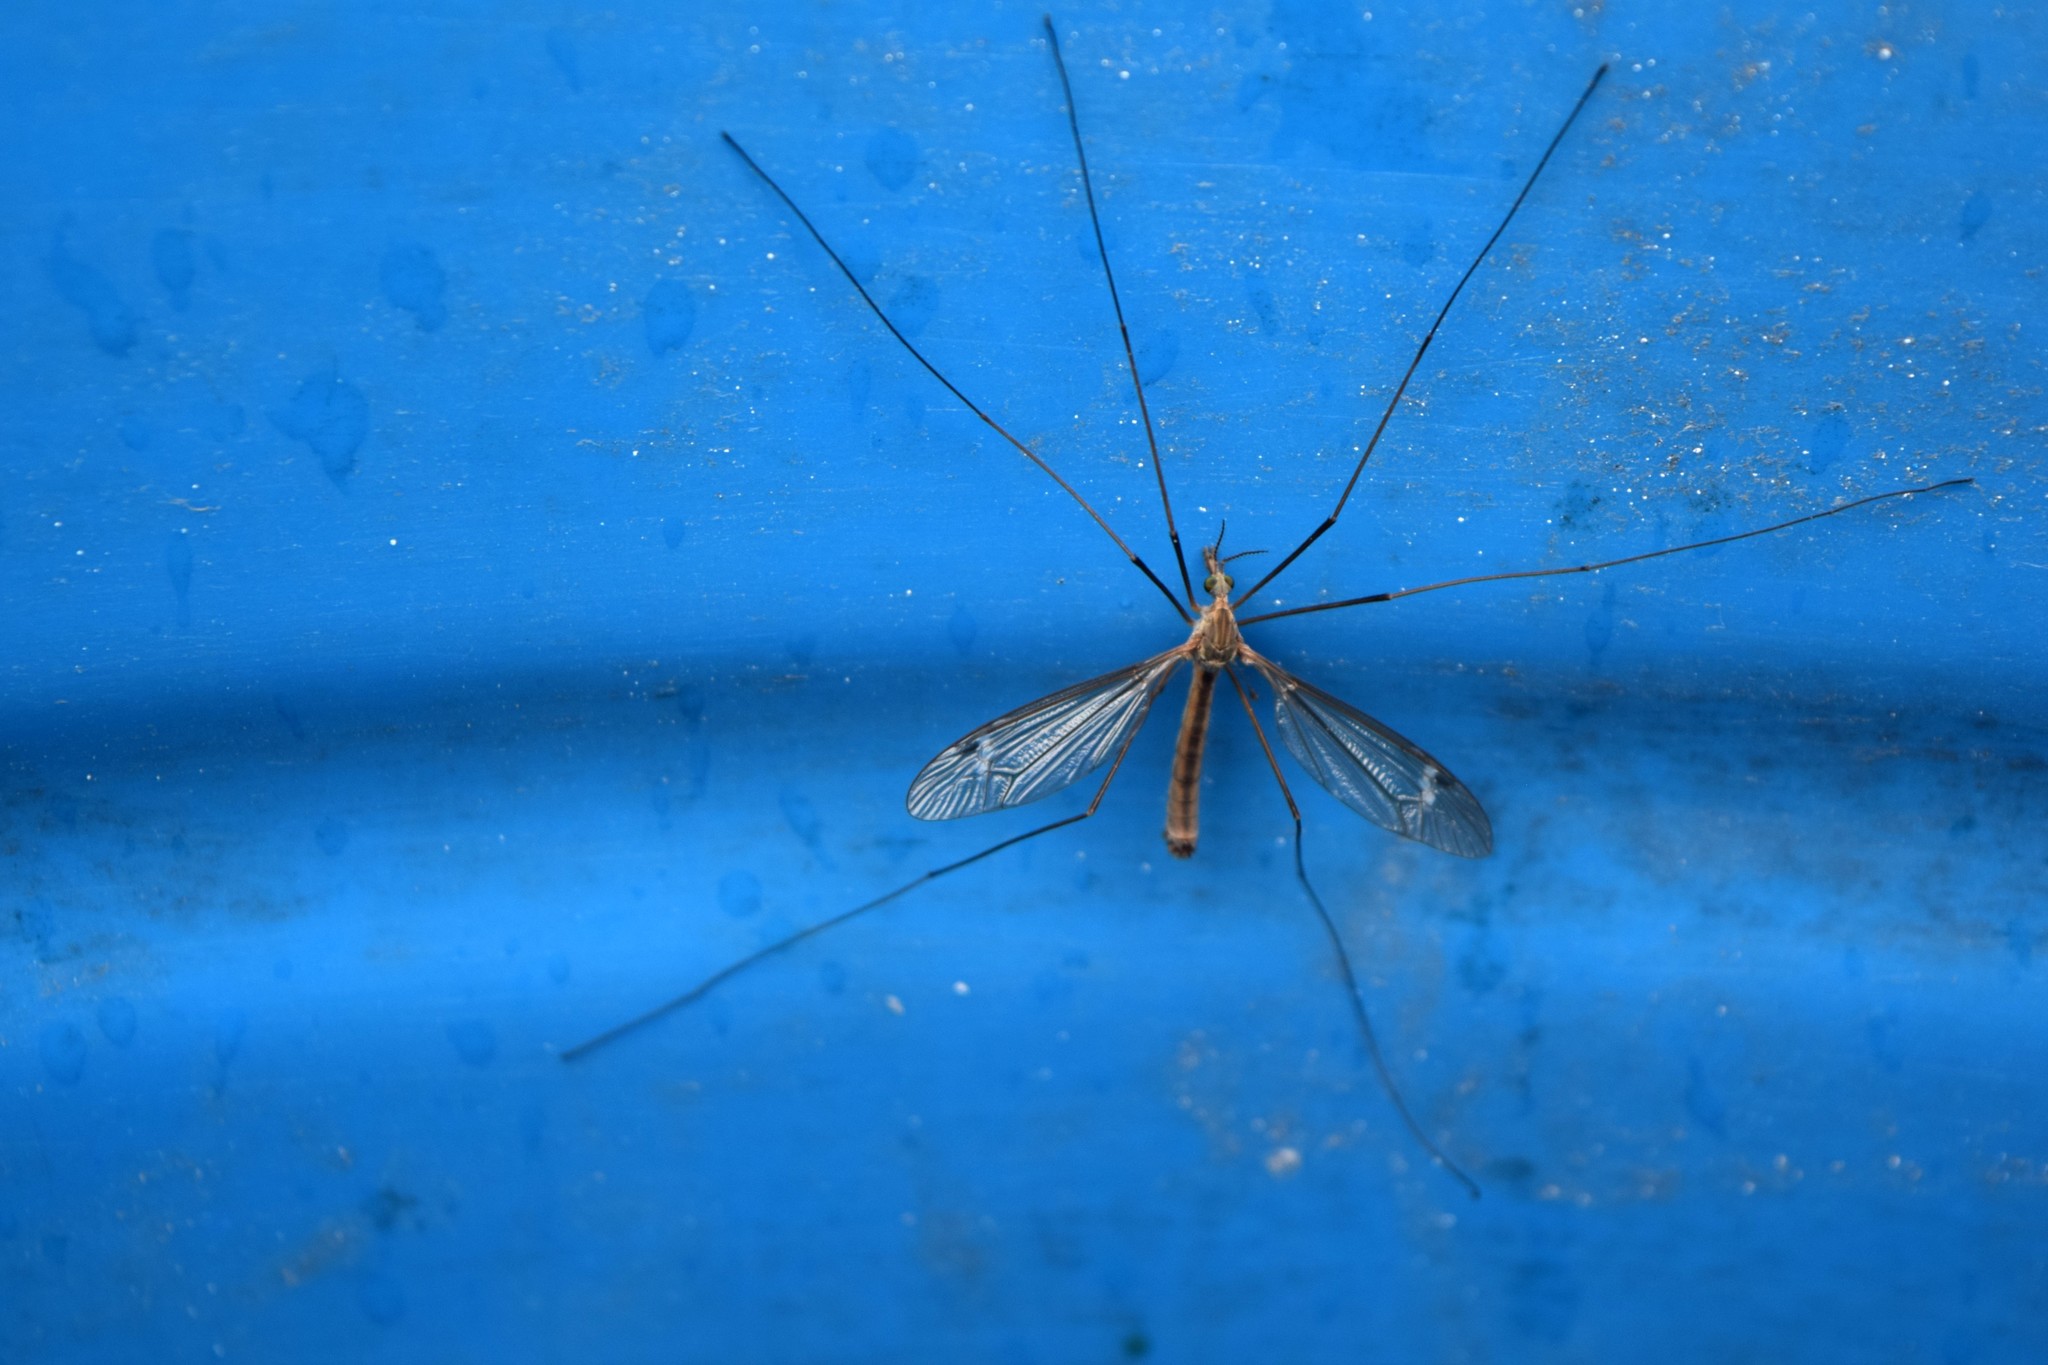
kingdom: Animalia
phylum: Arthropoda
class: Insecta
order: Diptera
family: Tipulidae
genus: Tipula
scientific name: Tipula furca
